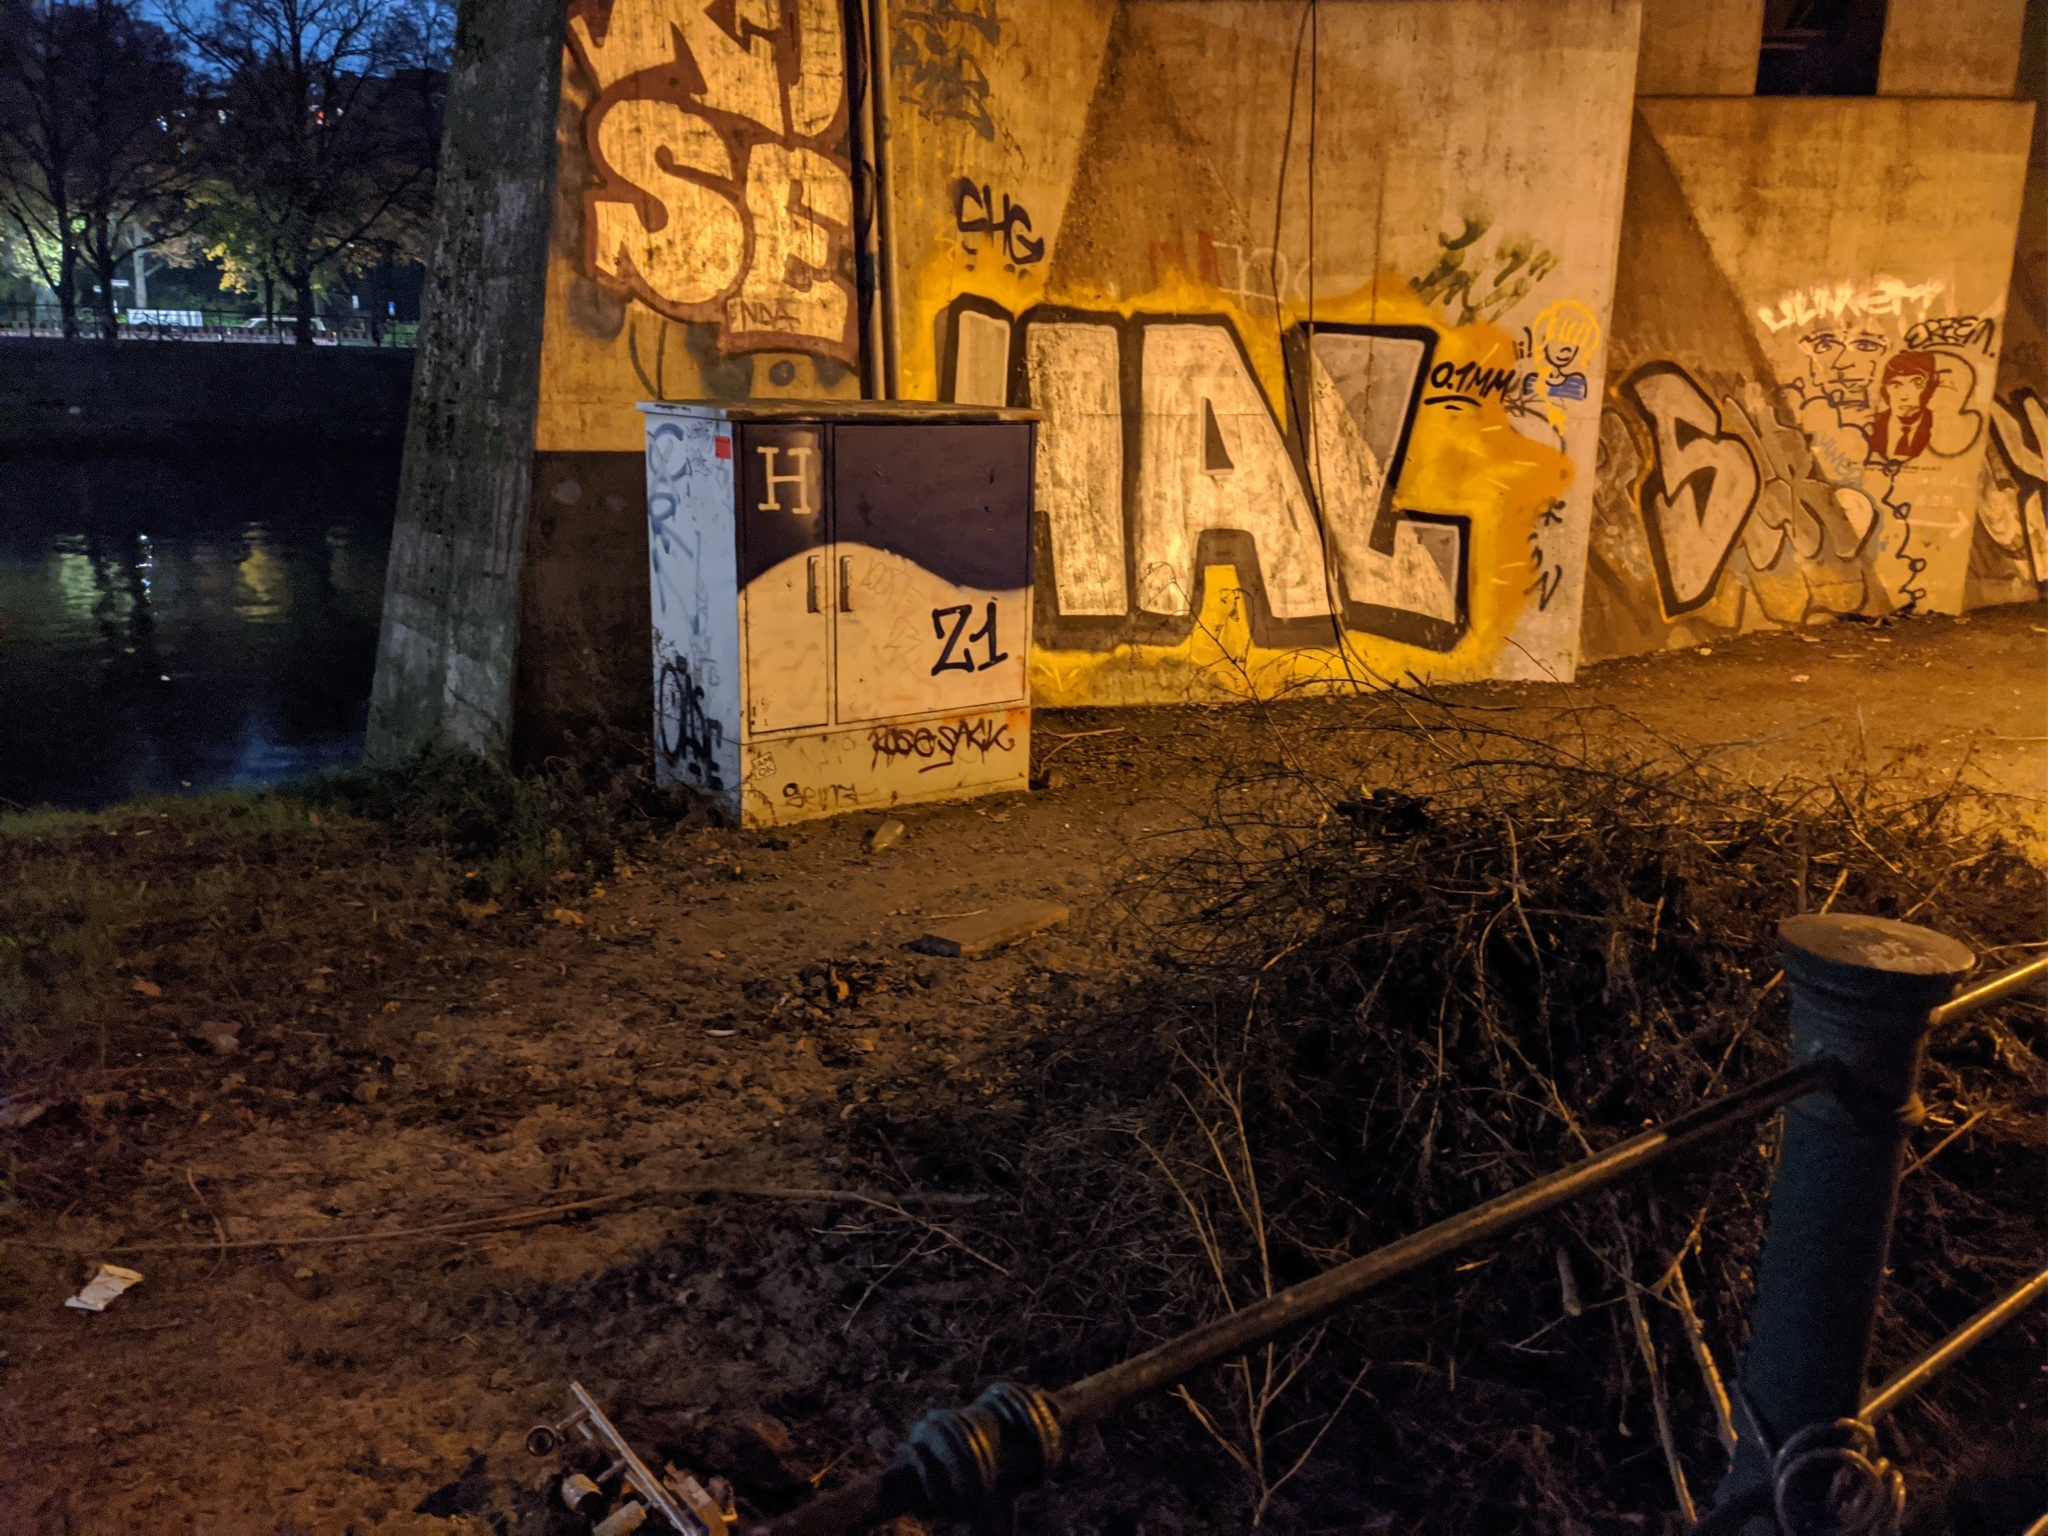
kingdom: Animalia
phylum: Chordata
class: Mammalia
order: Rodentia
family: Muridae
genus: Rattus
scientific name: Rattus norvegicus
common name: Brown rat
